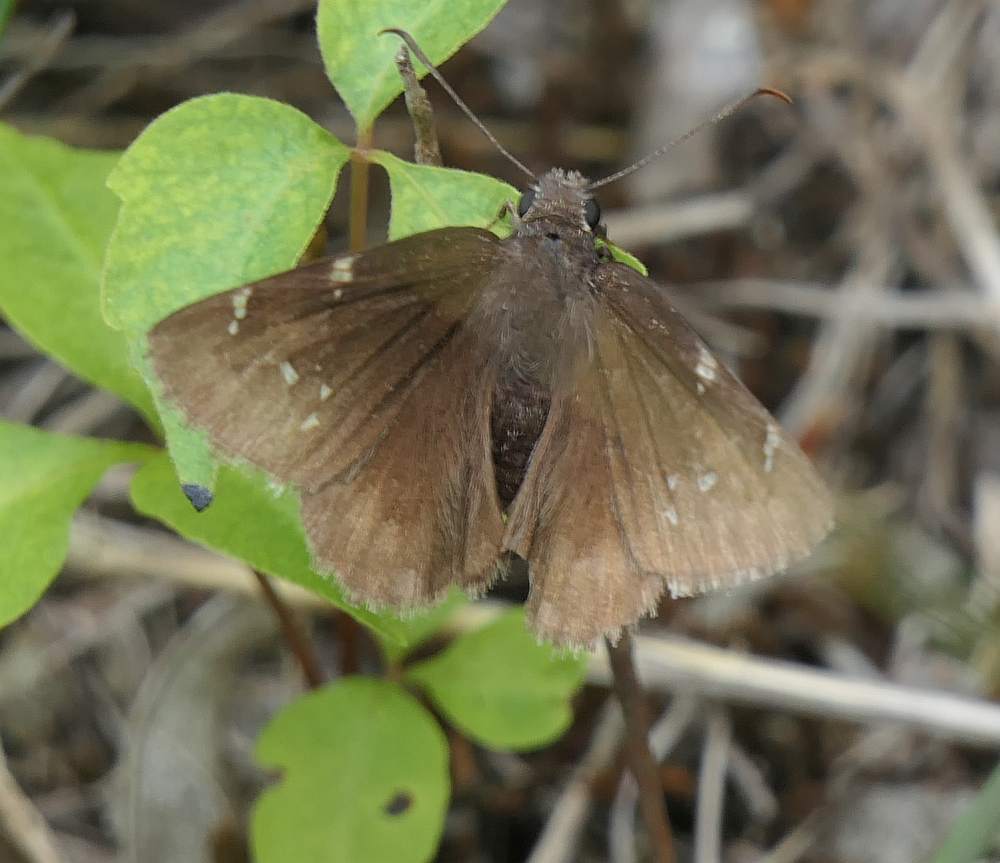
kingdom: Animalia
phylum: Arthropoda
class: Insecta
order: Lepidoptera
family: Hesperiidae
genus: Thorybes
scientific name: Thorybes pylades
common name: Northern cloudywing
